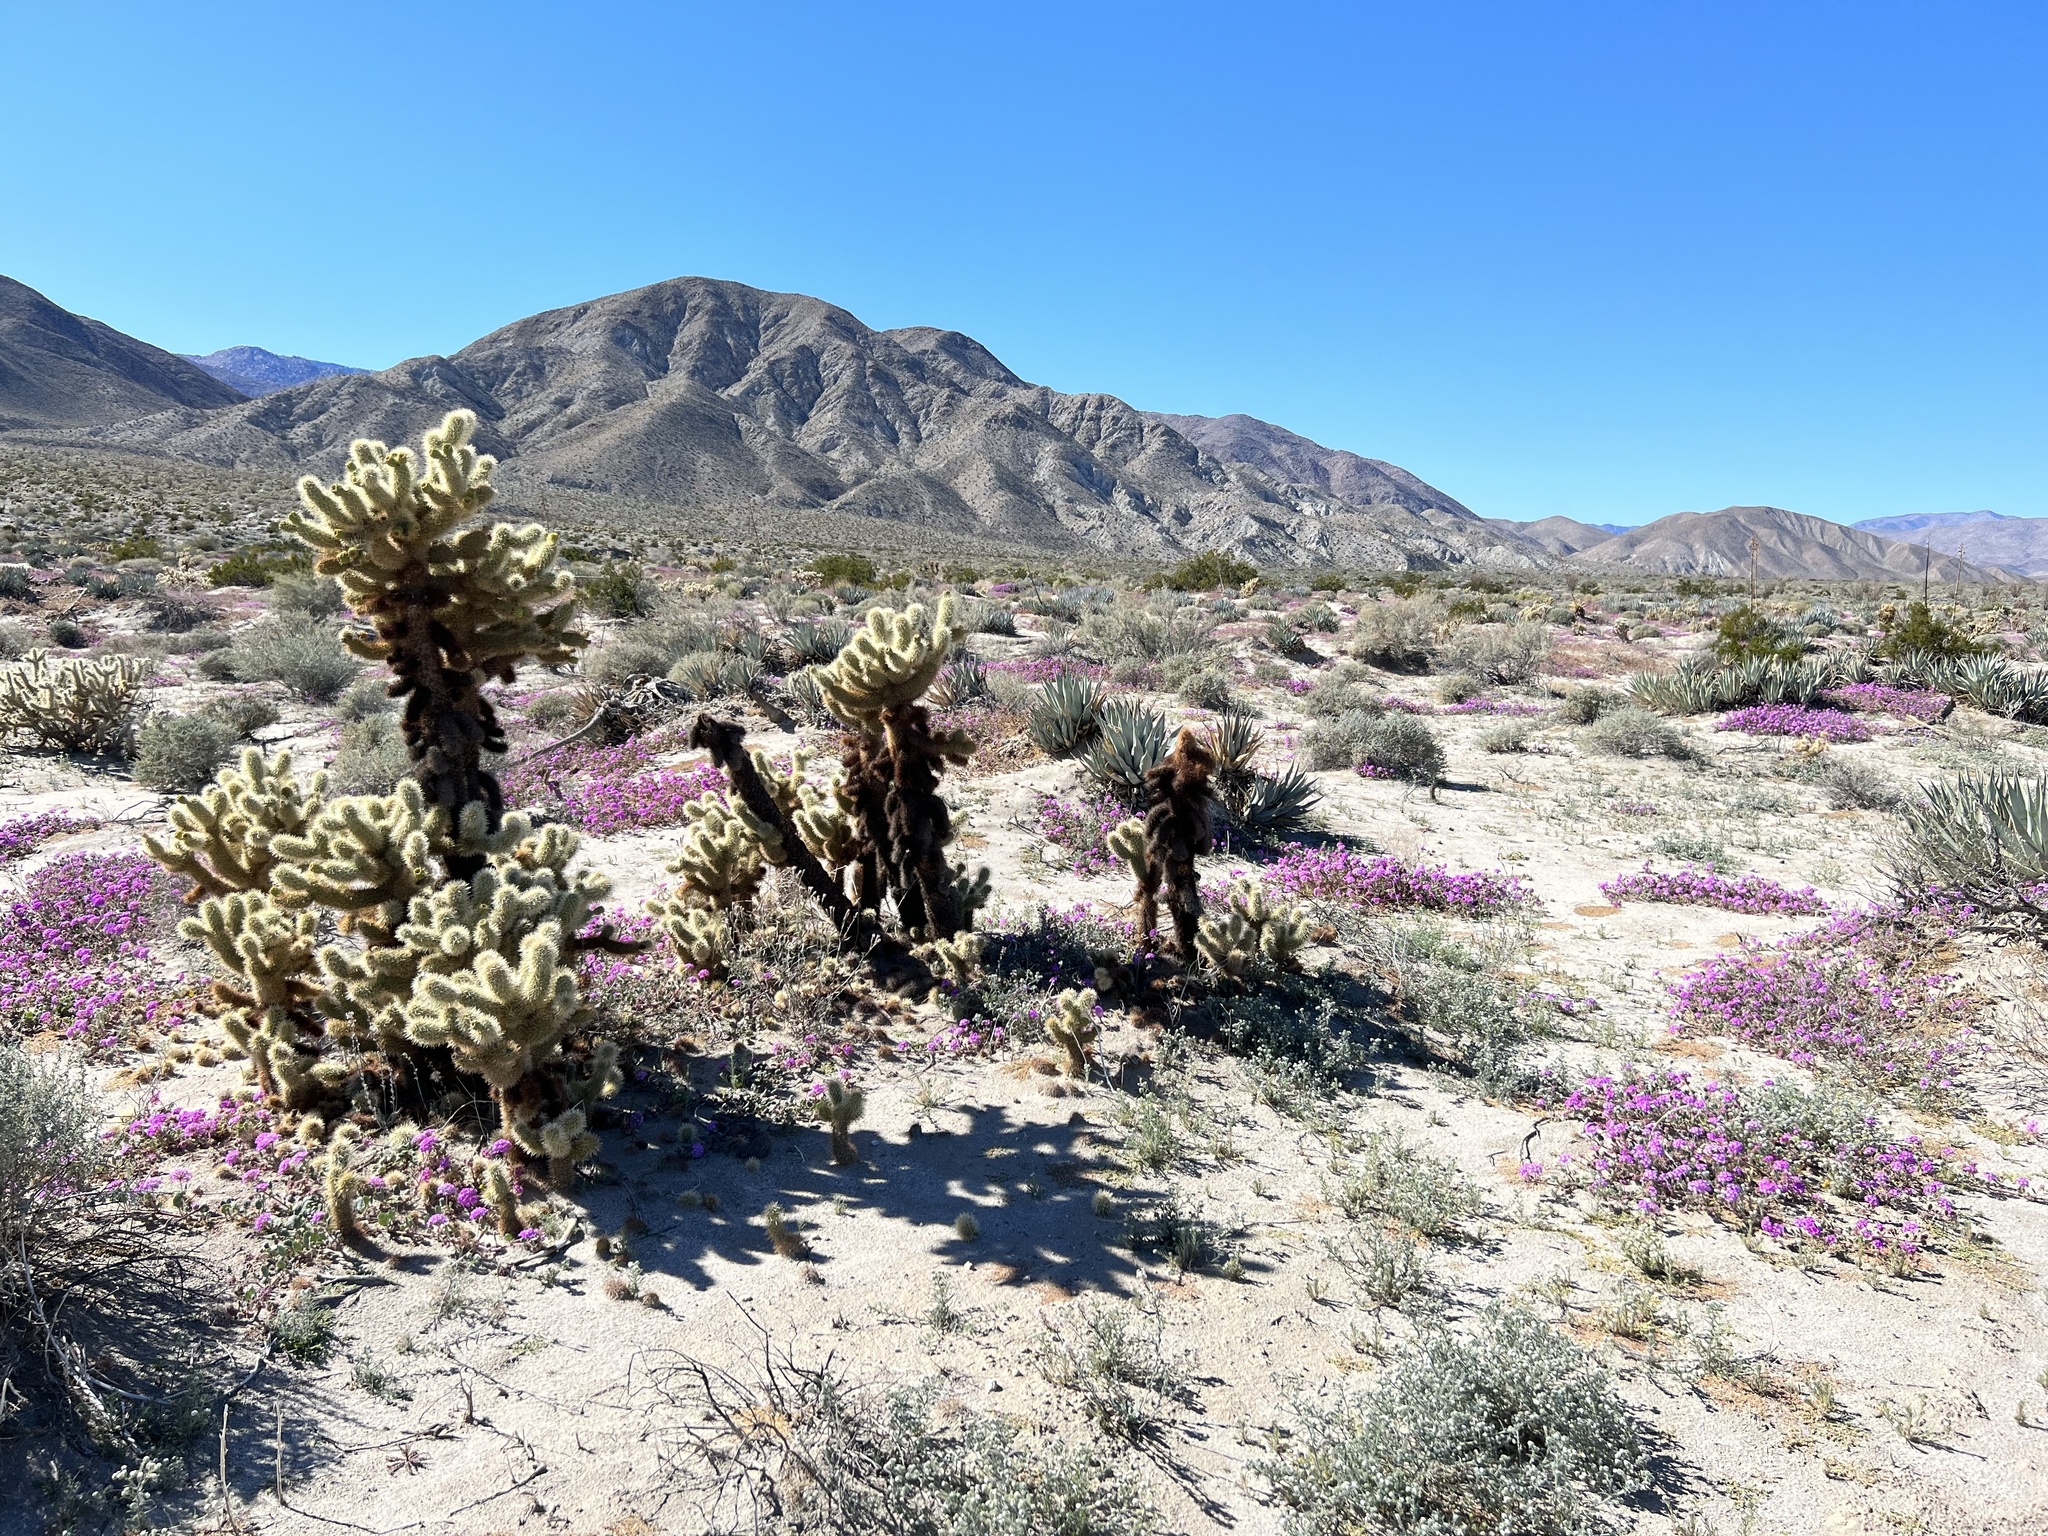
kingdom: Plantae
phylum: Tracheophyta
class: Magnoliopsida
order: Caryophyllales
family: Cactaceae
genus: Cylindropuntia
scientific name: Cylindropuntia fosbergii
